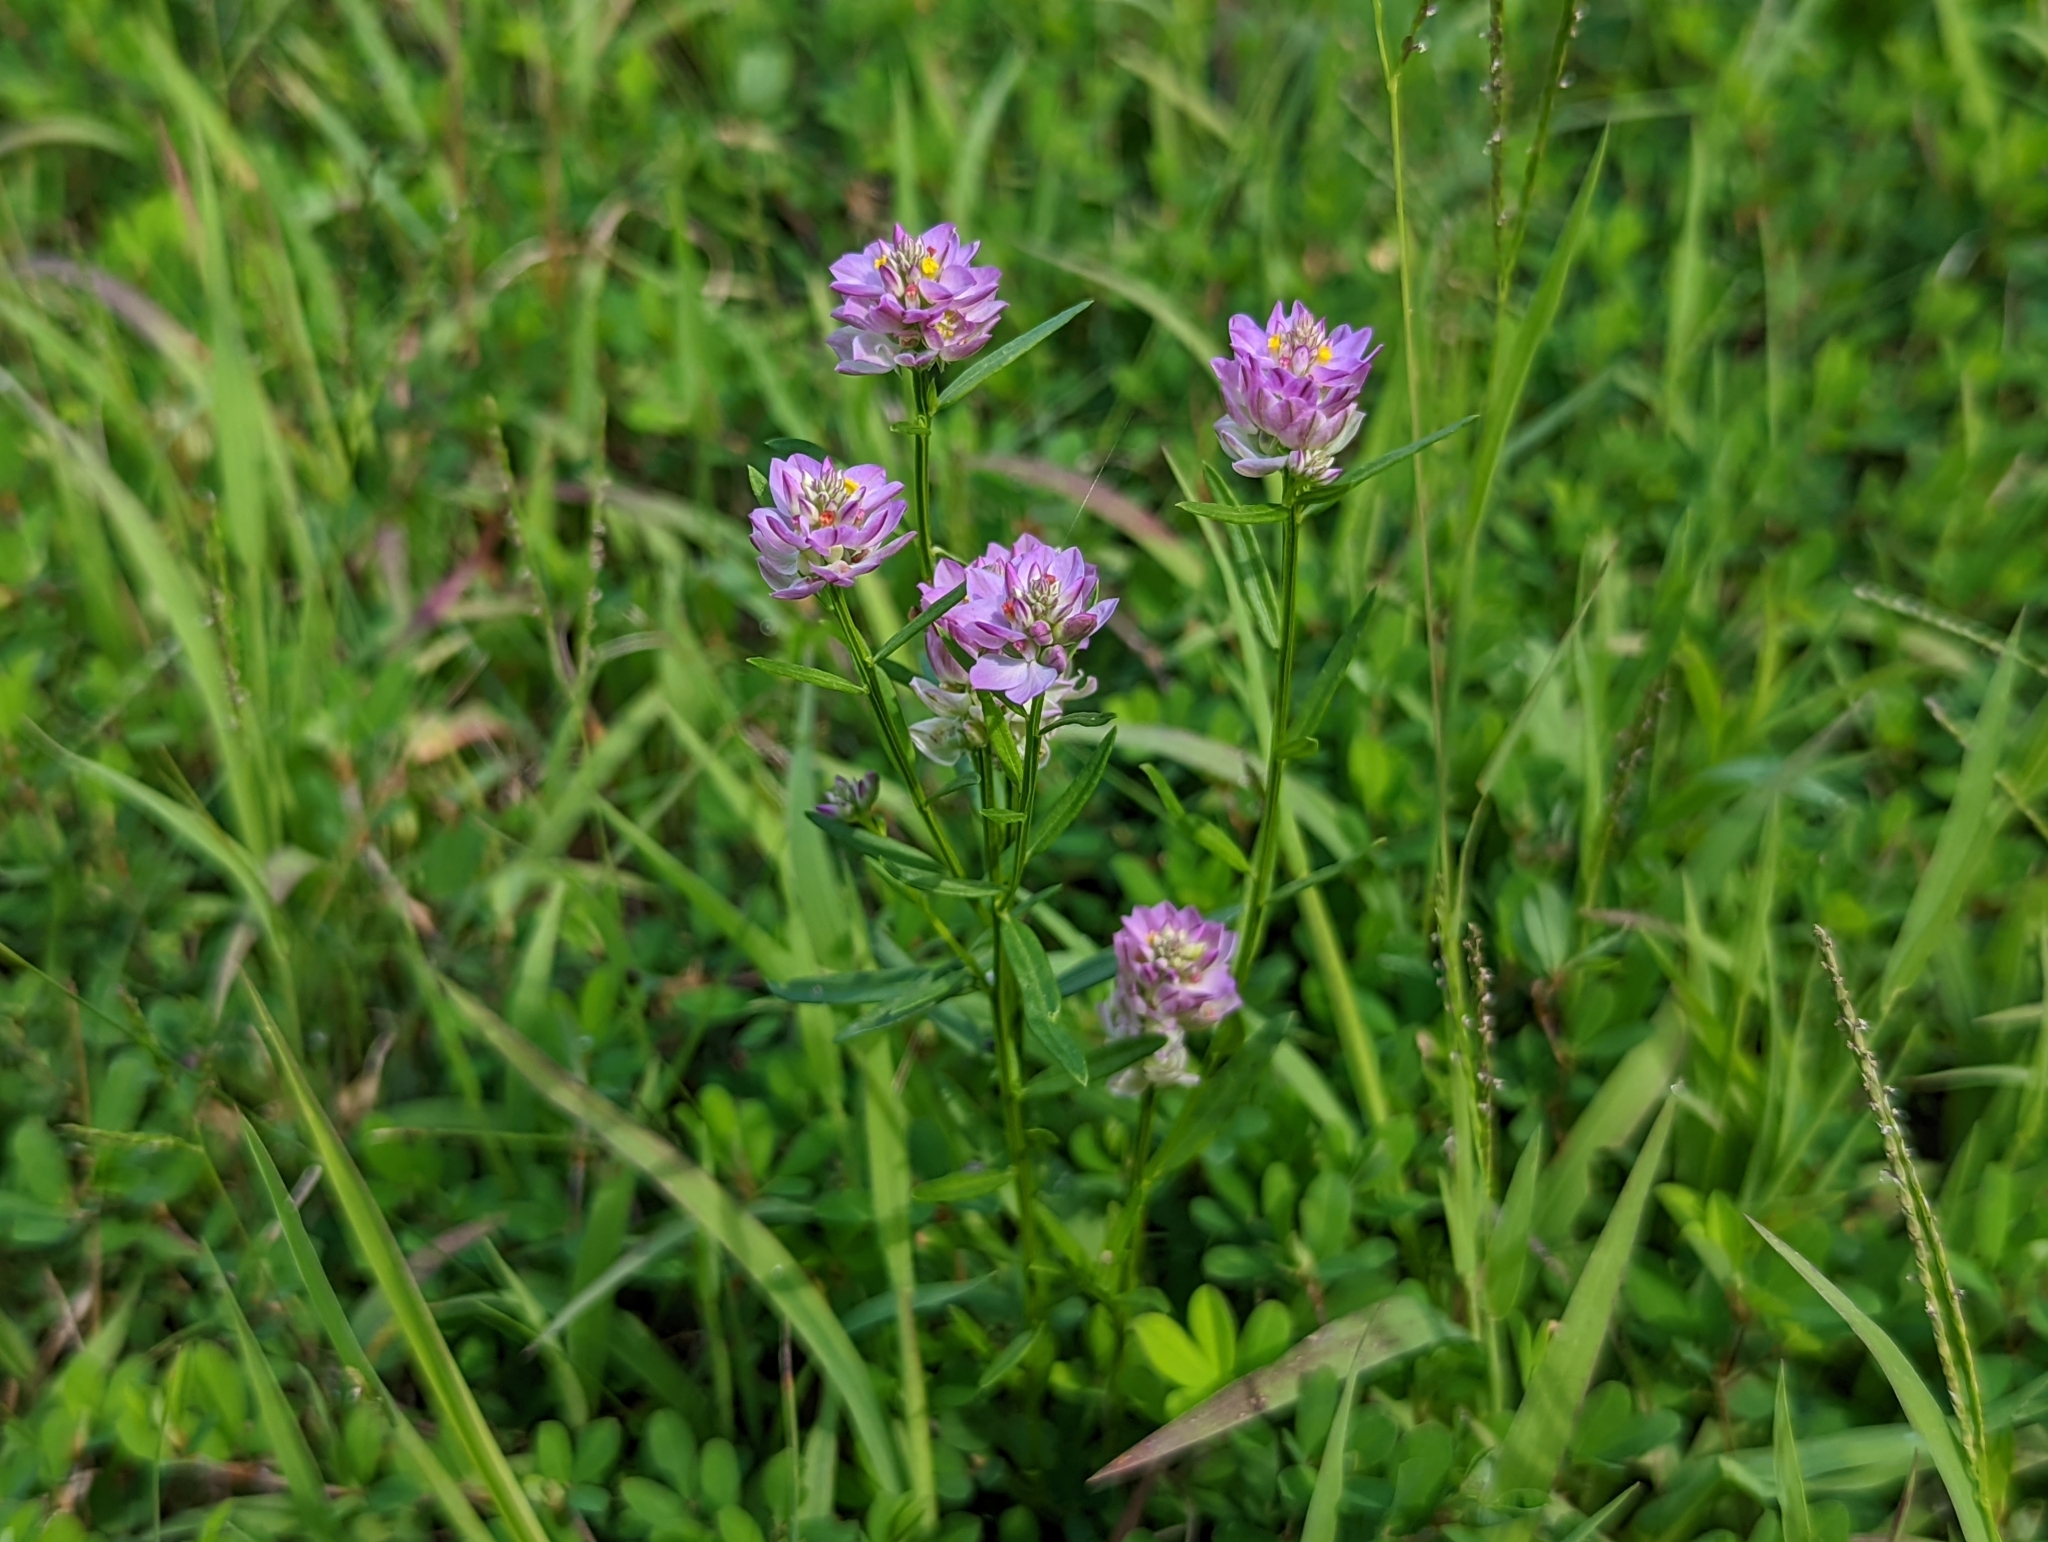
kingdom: Plantae
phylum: Tracheophyta
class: Magnoliopsida
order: Fabales
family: Polygalaceae
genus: Polygala
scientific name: Polygala sanguinea
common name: Blood milkwort
